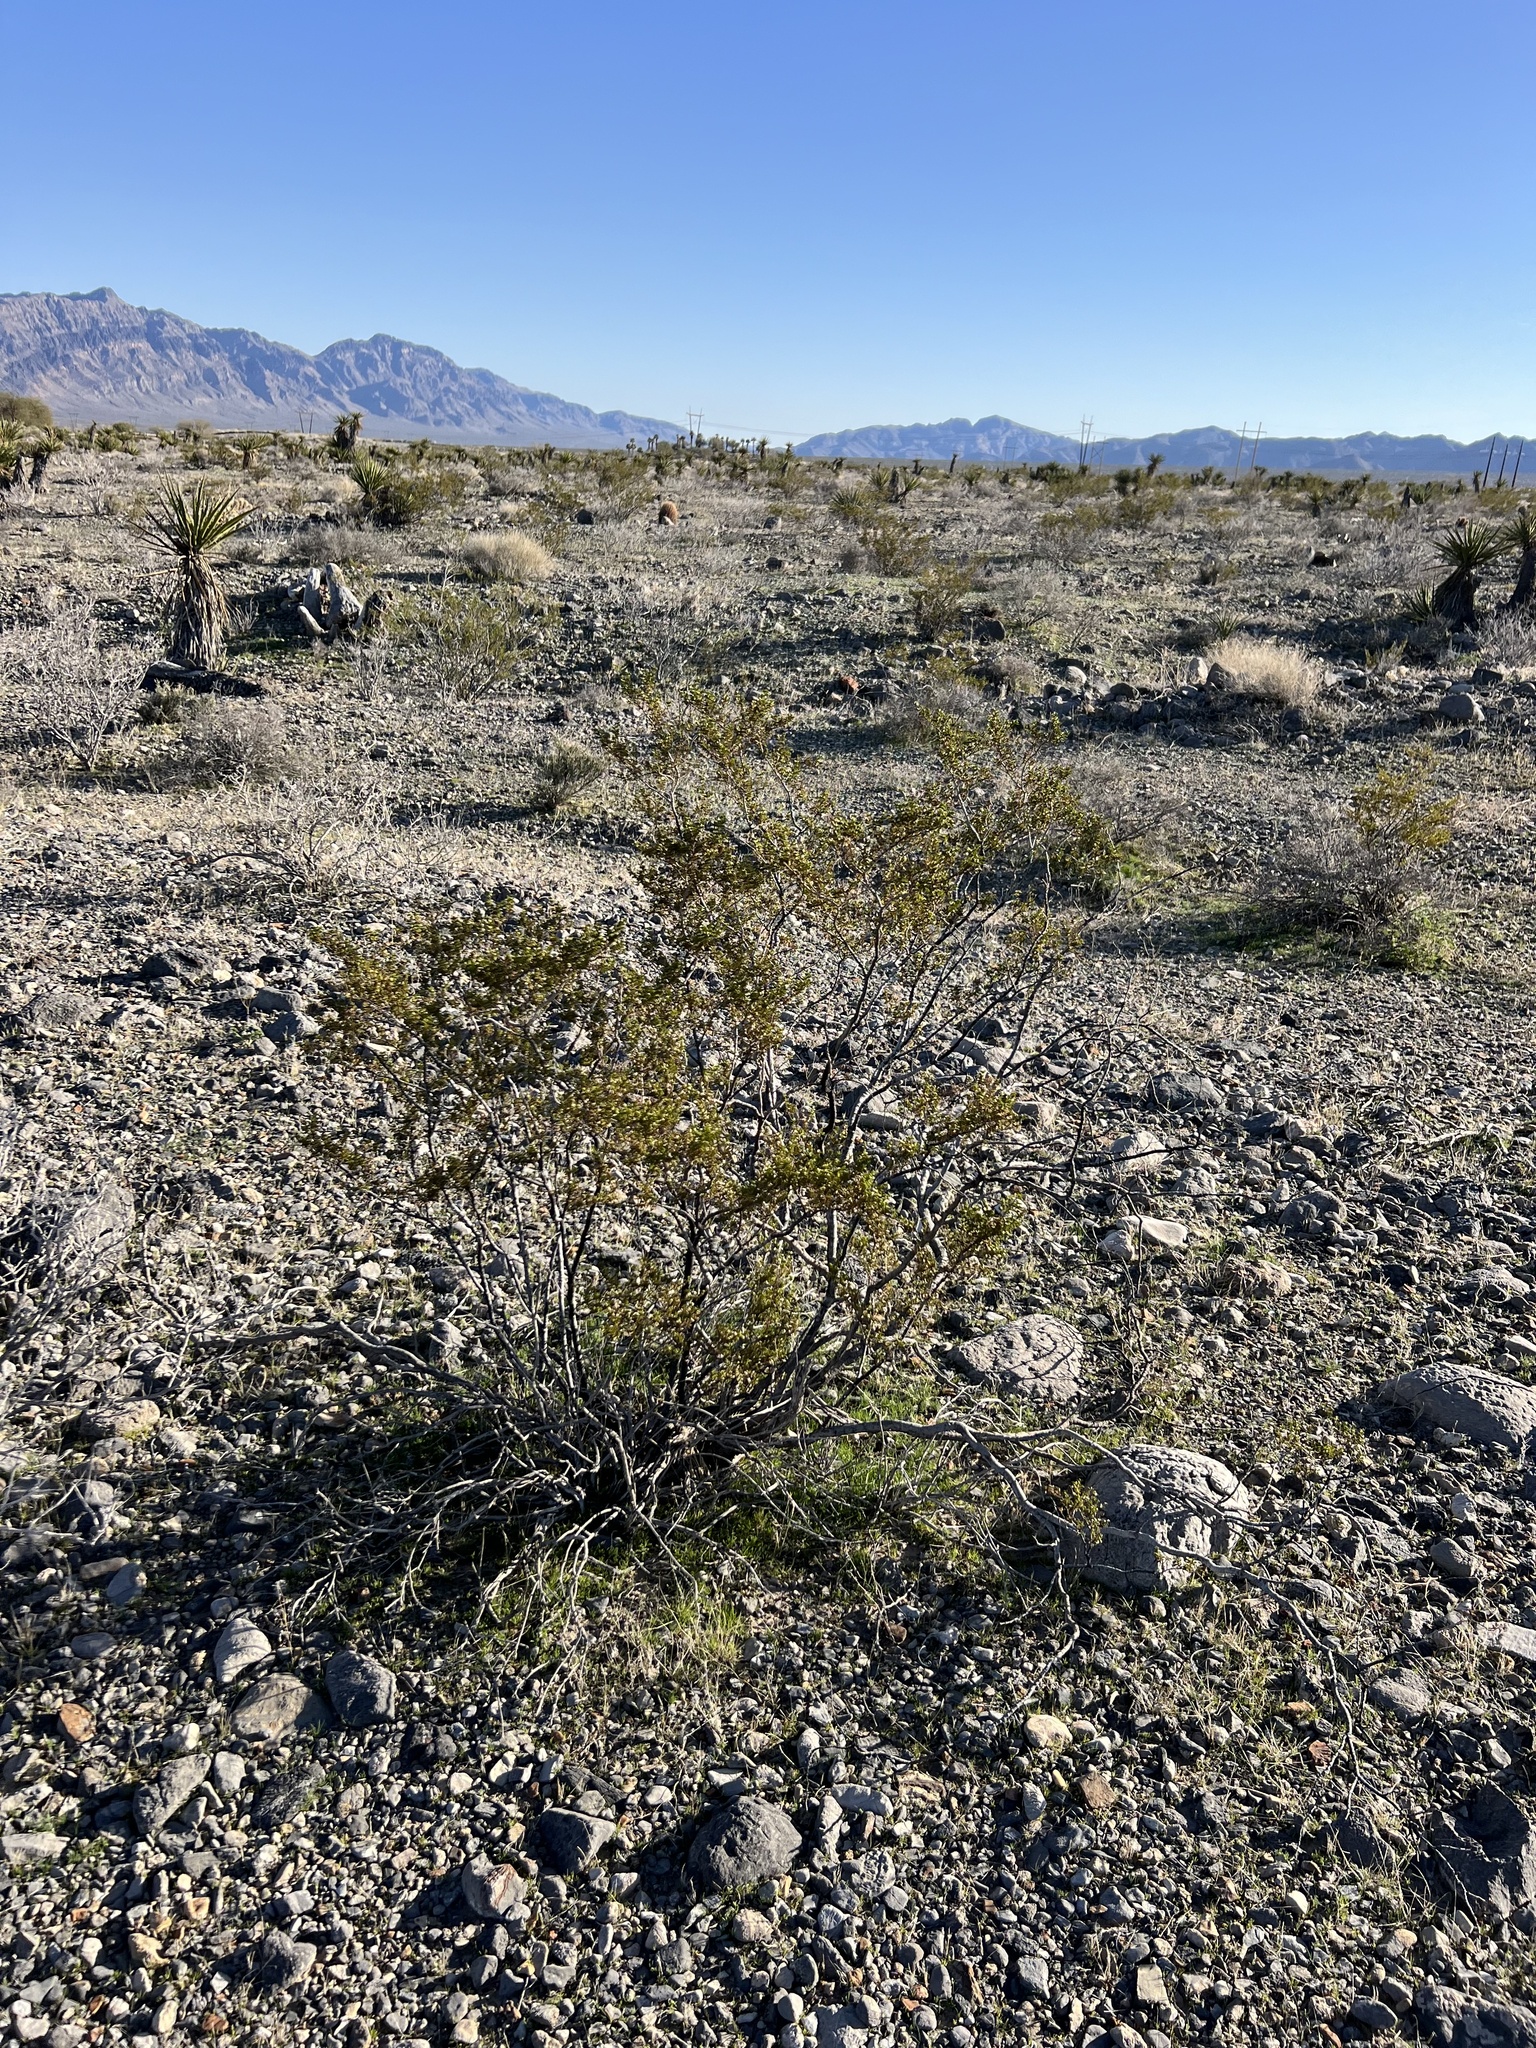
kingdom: Plantae
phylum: Tracheophyta
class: Magnoliopsida
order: Zygophyllales
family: Zygophyllaceae
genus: Larrea
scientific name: Larrea tridentata
